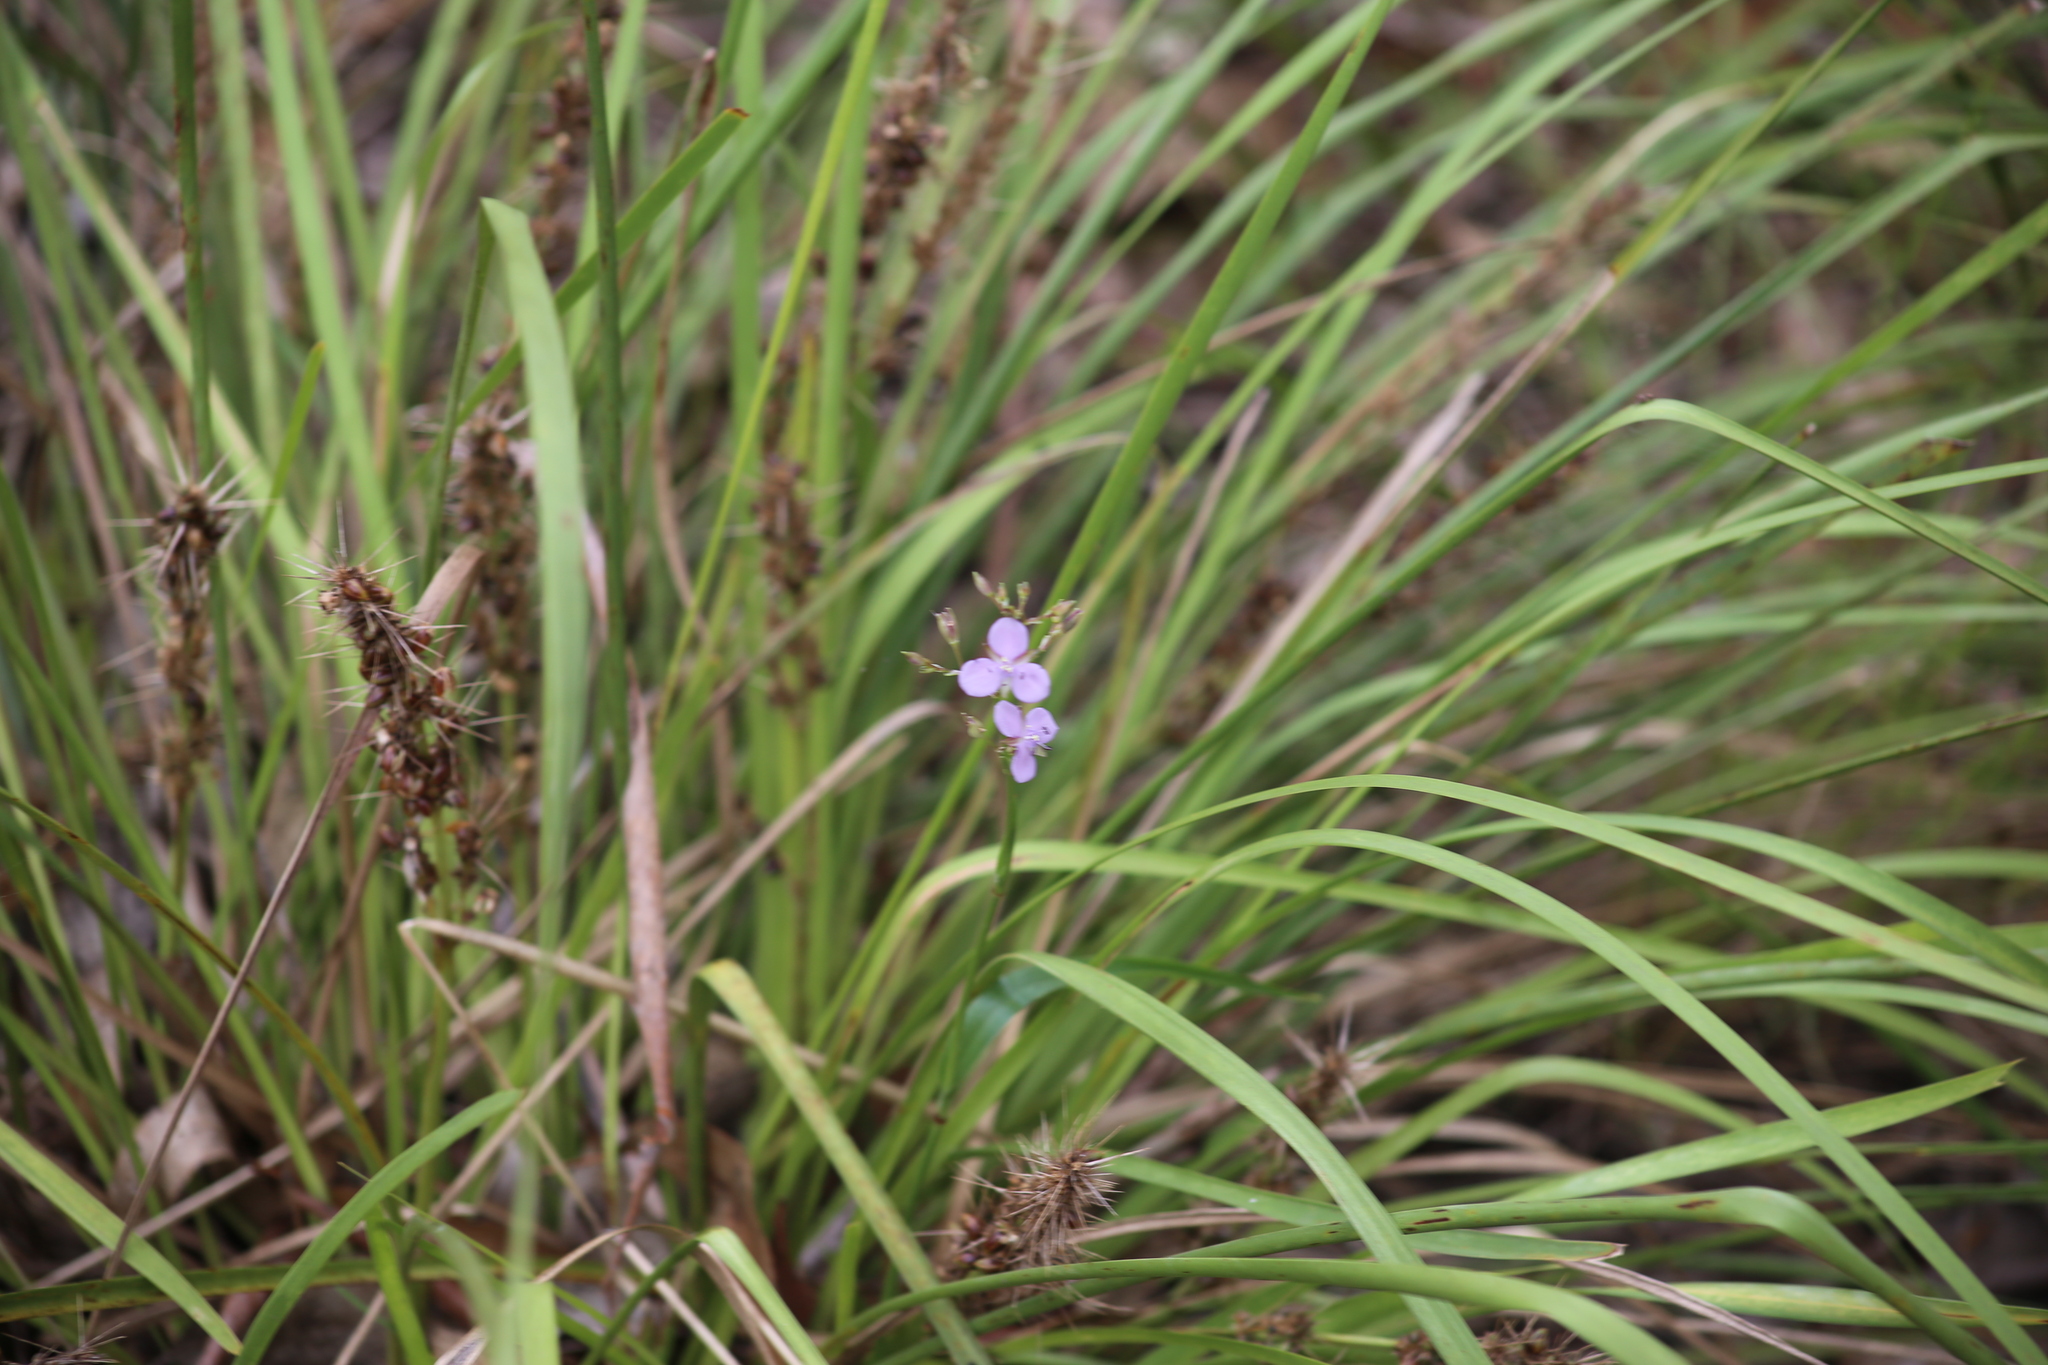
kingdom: Plantae
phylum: Tracheophyta
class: Liliopsida
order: Commelinales
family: Commelinaceae
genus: Murdannia
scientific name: Murdannia graminea
